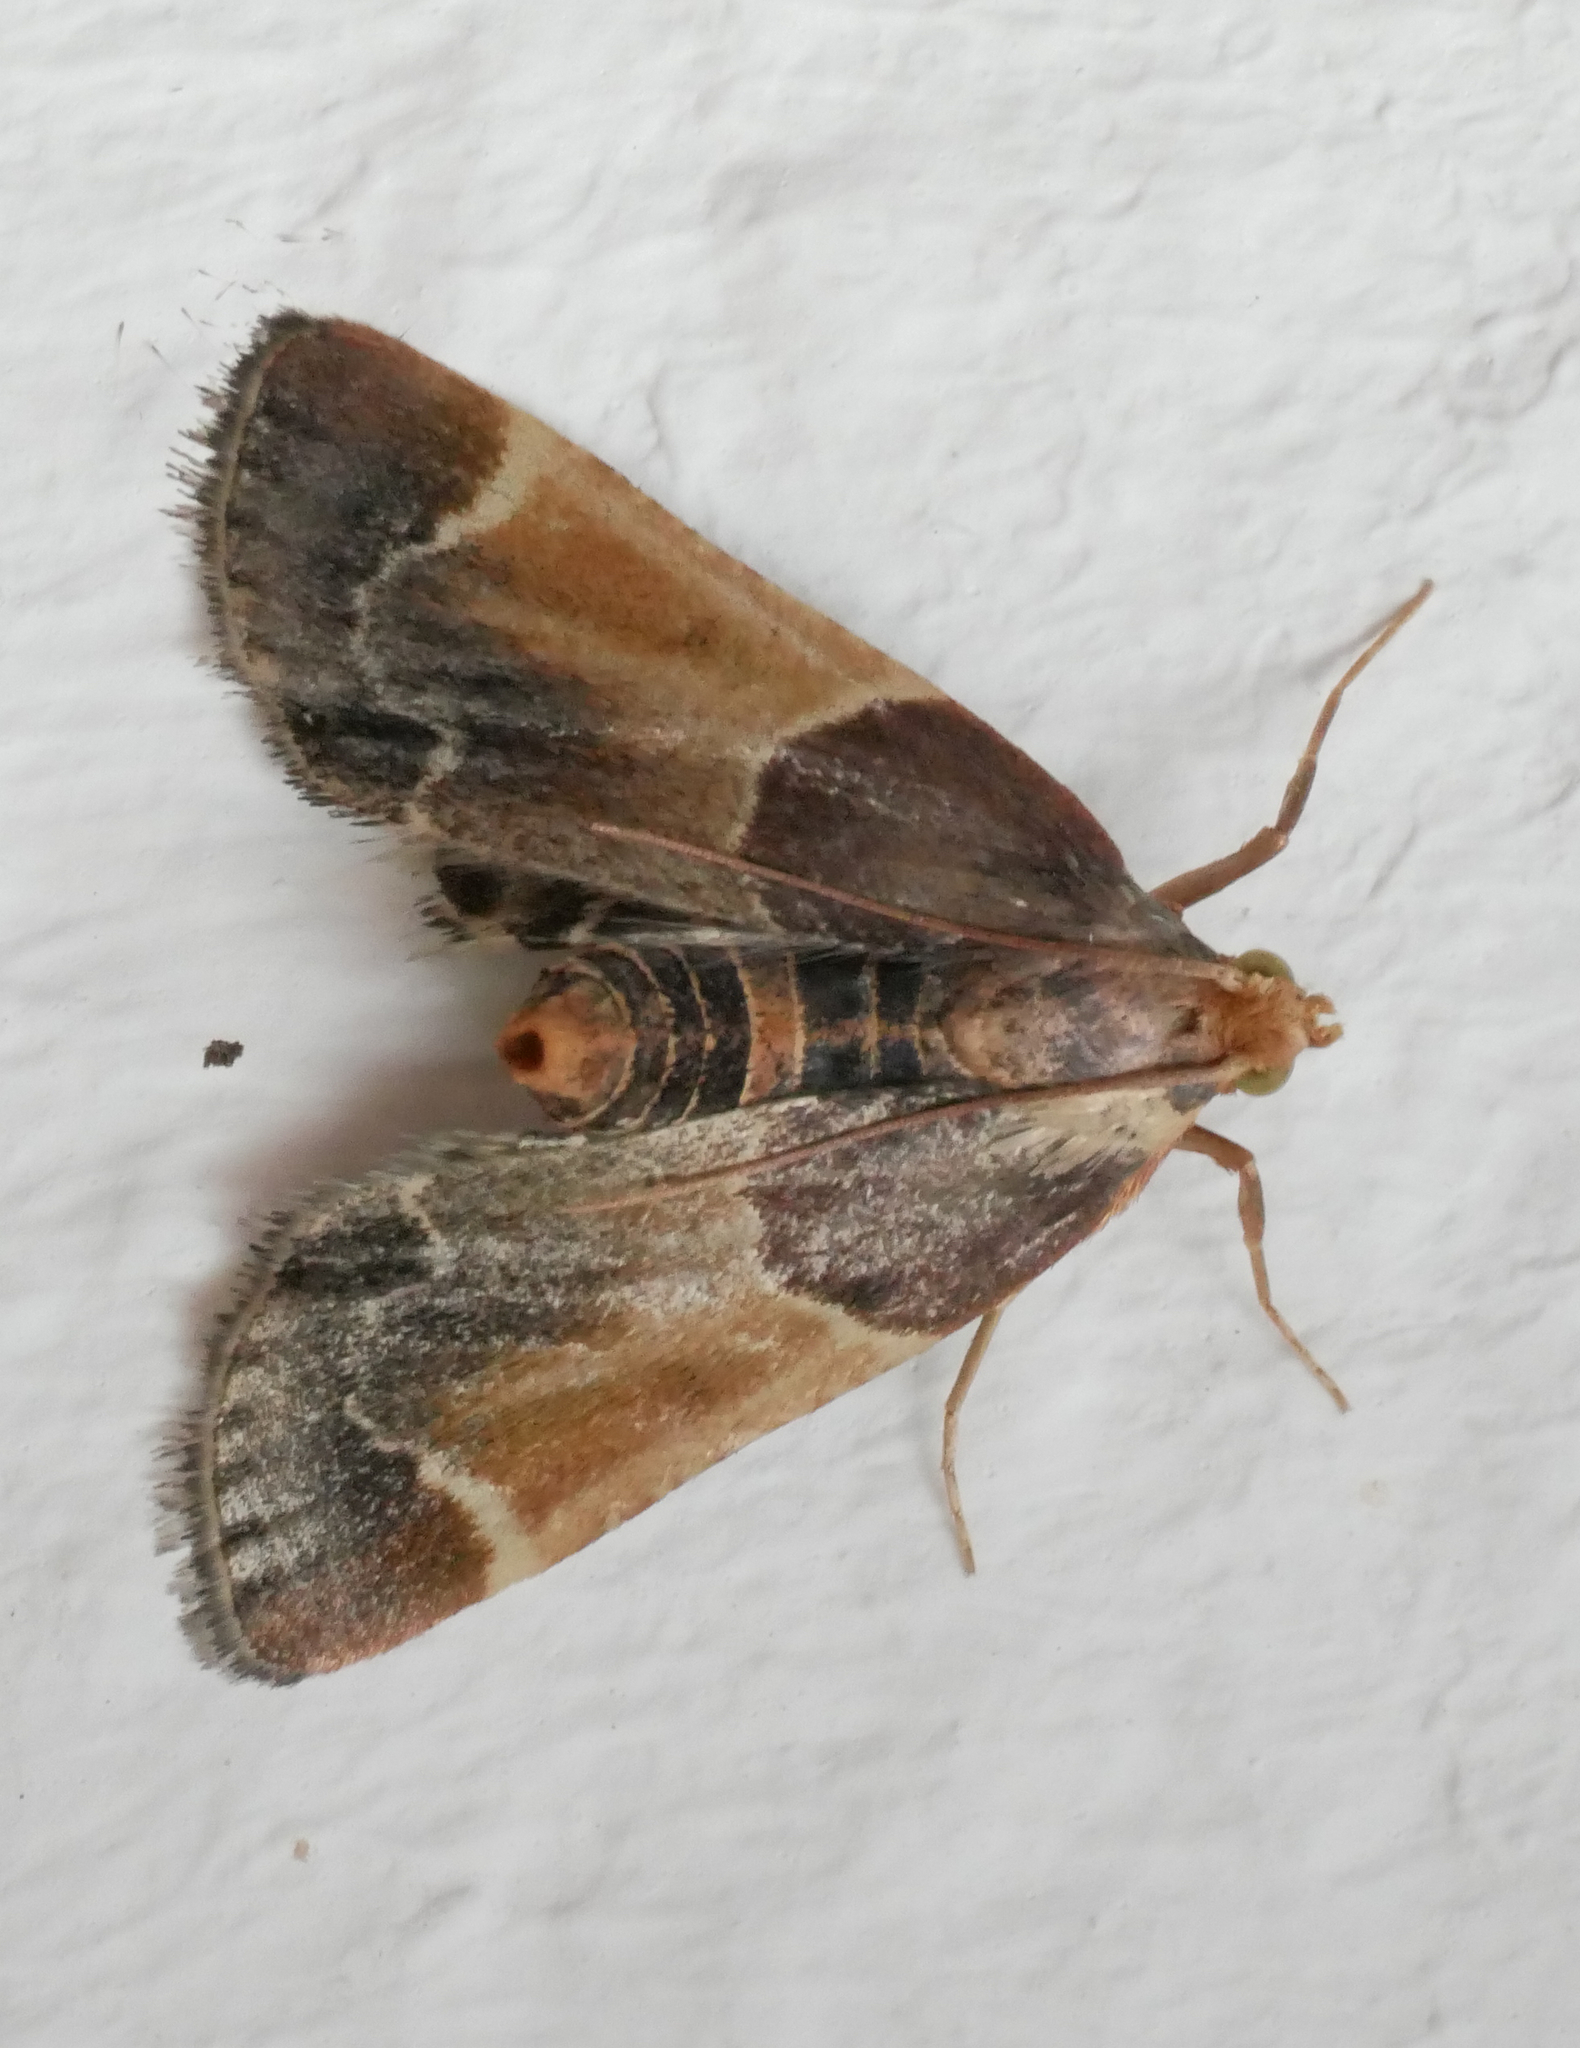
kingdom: Animalia
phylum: Arthropoda
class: Insecta
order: Lepidoptera
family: Pyralidae
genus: Pyralis
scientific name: Pyralis farinalis
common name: Meal moth
